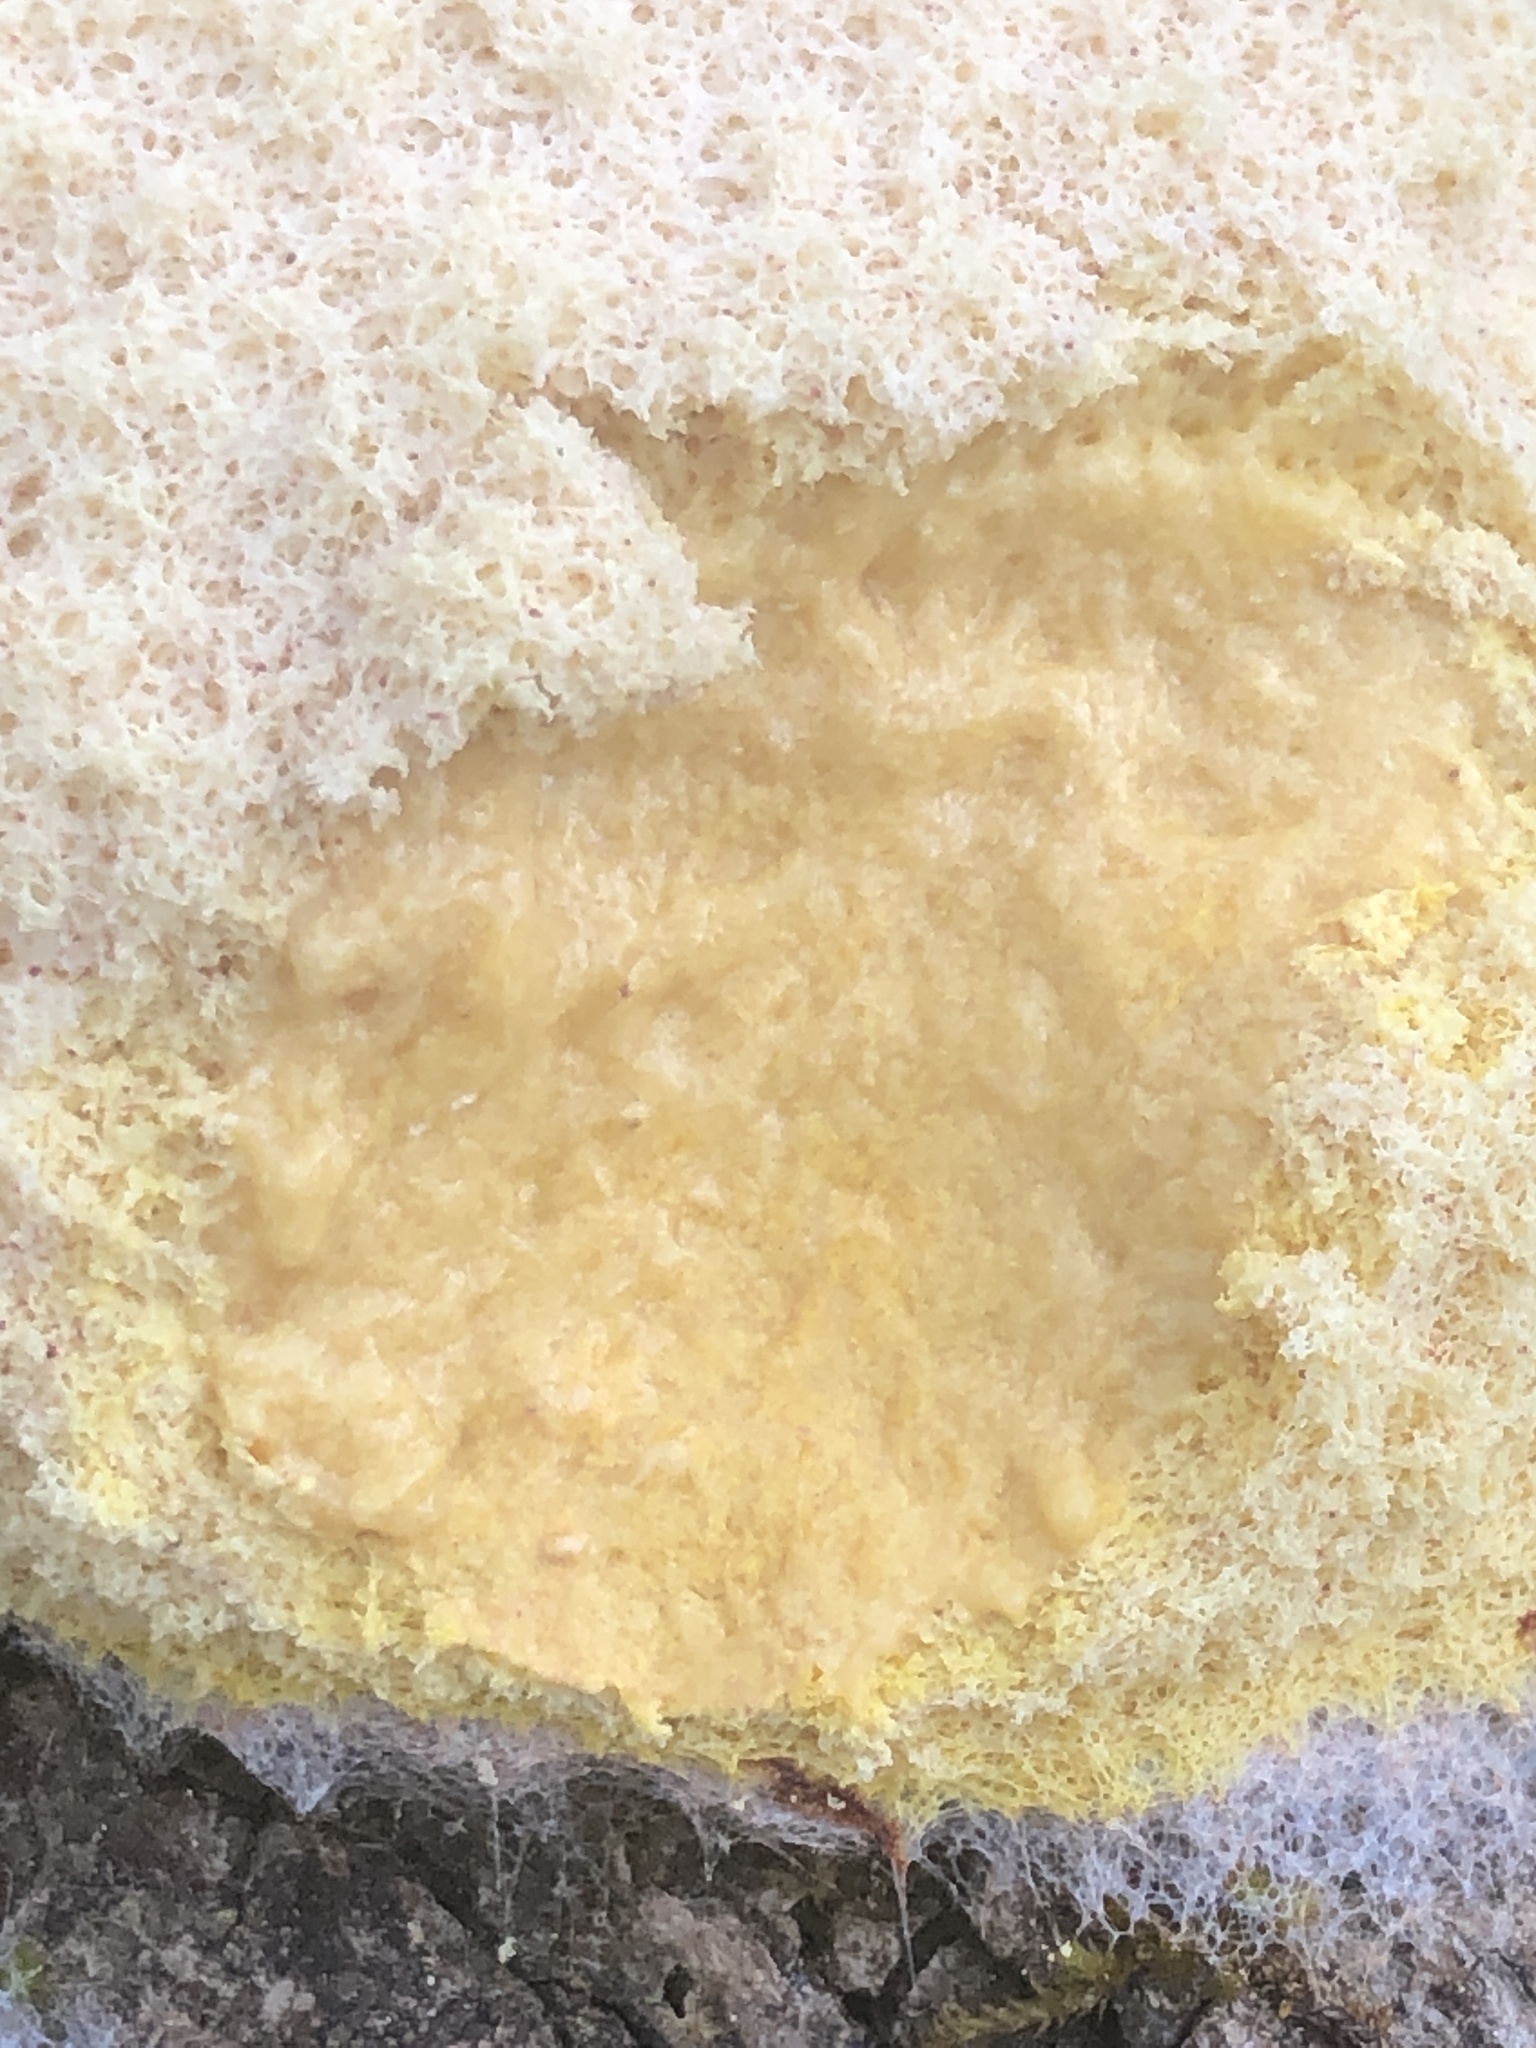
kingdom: Protozoa
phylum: Mycetozoa
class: Myxomycetes
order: Physarales
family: Physaraceae
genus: Fuligo
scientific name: Fuligo septica
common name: Dog vomit slime mold
